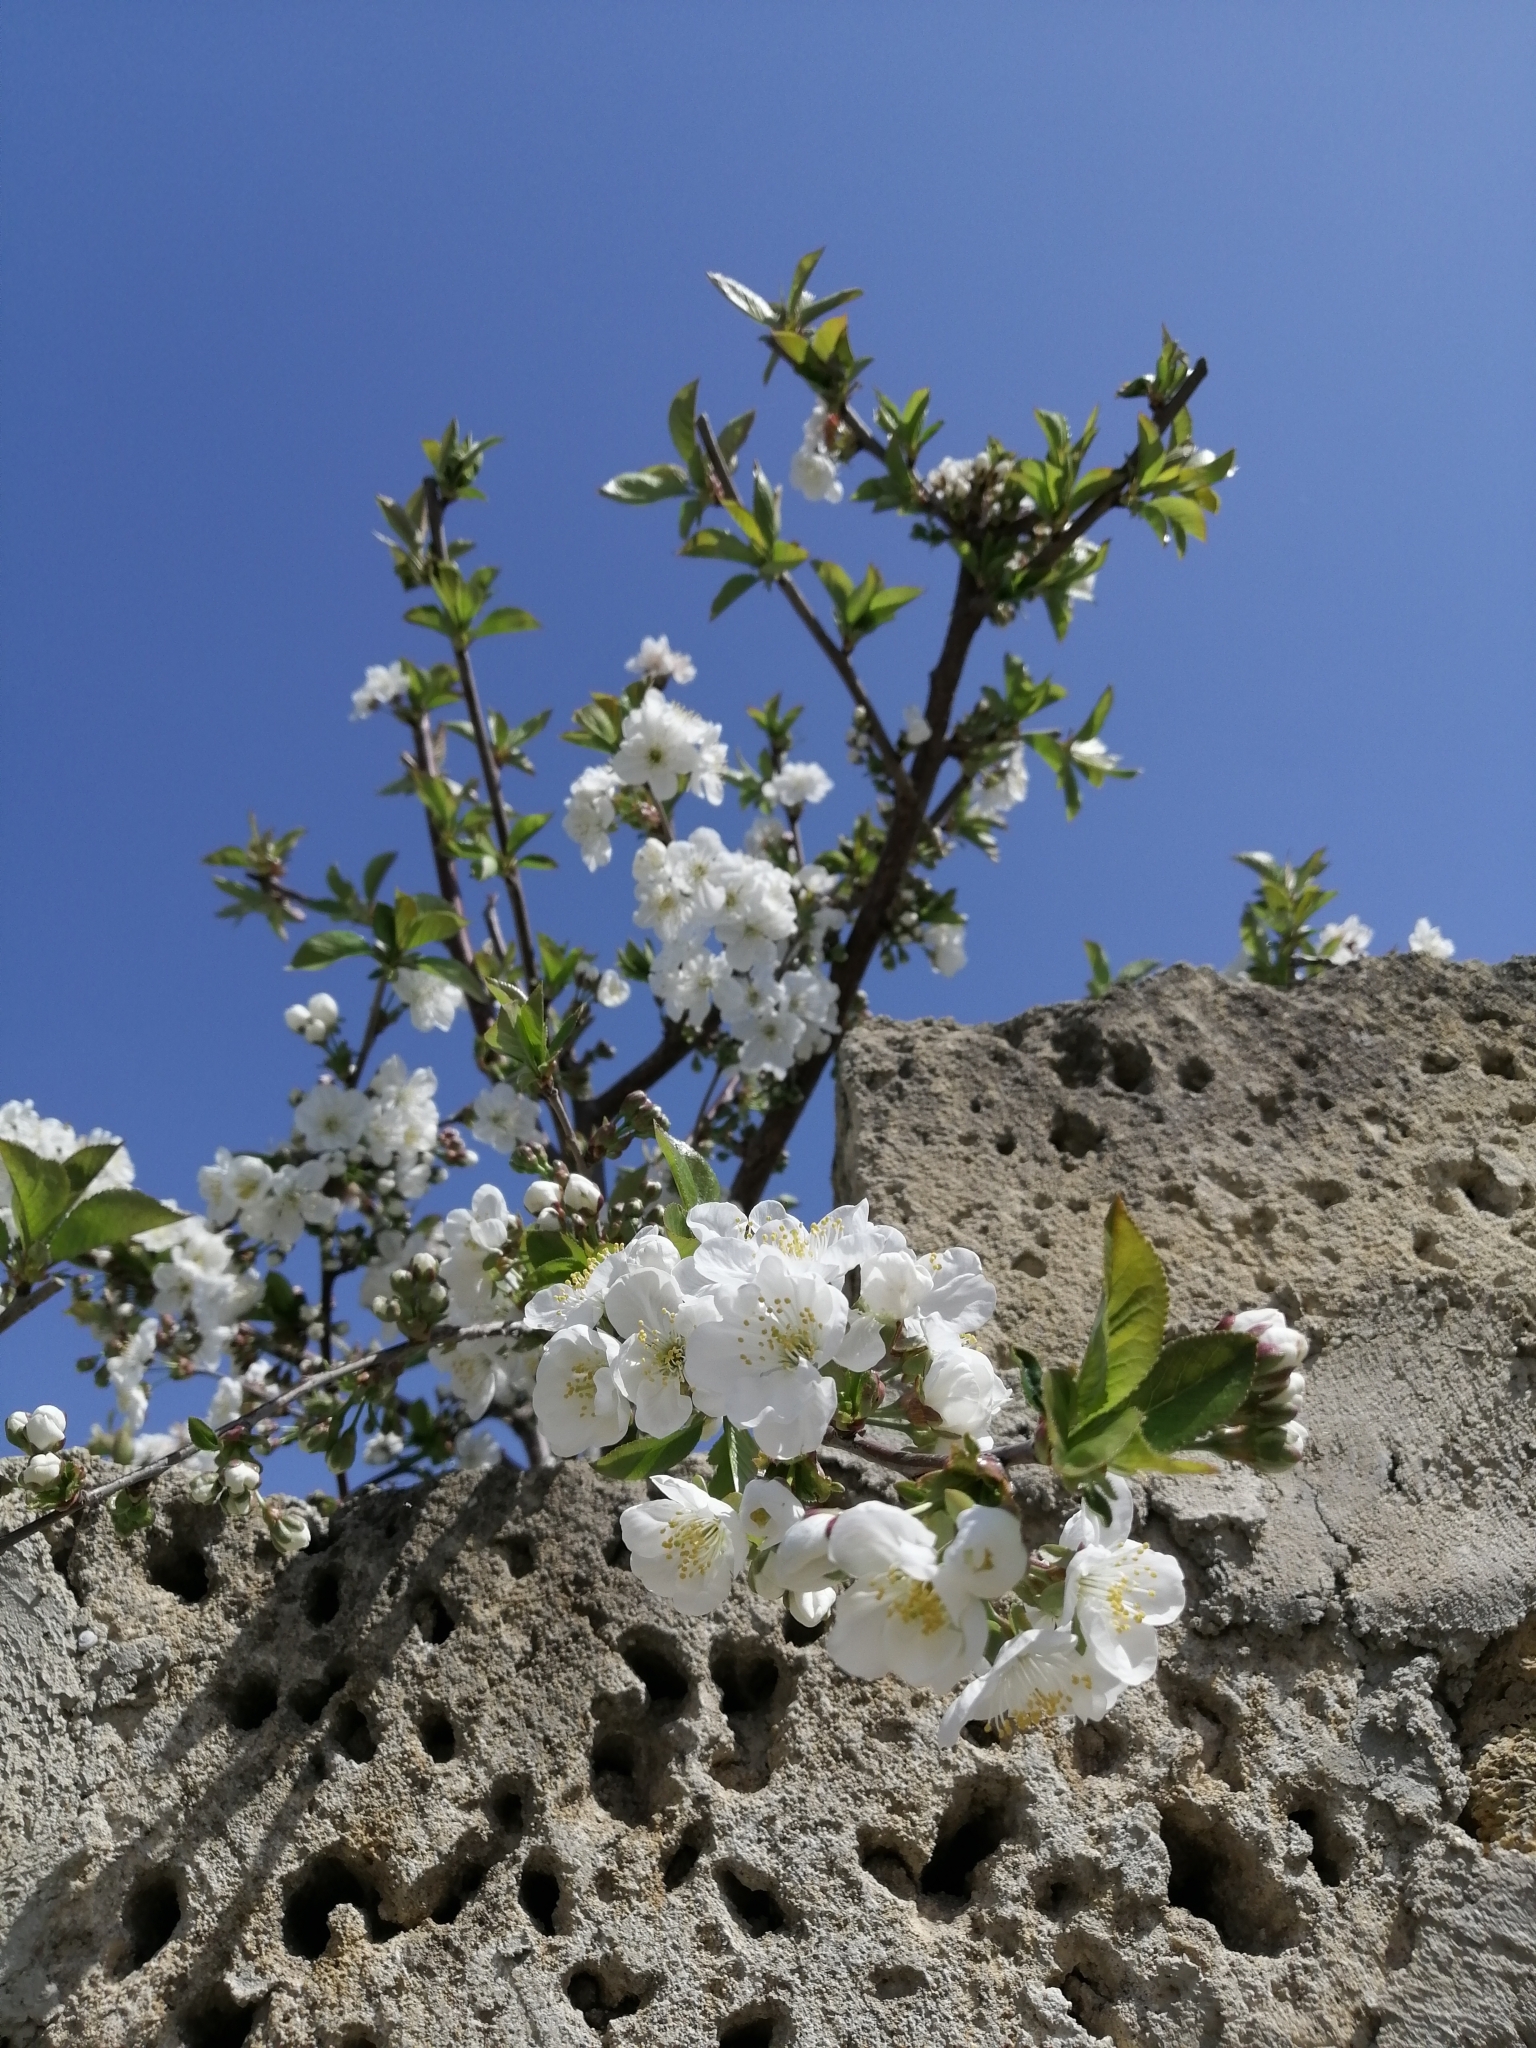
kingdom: Plantae
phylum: Tracheophyta
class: Magnoliopsida
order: Rosales
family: Rosaceae
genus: Prunus
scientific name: Prunus avium
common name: Sweet cherry
